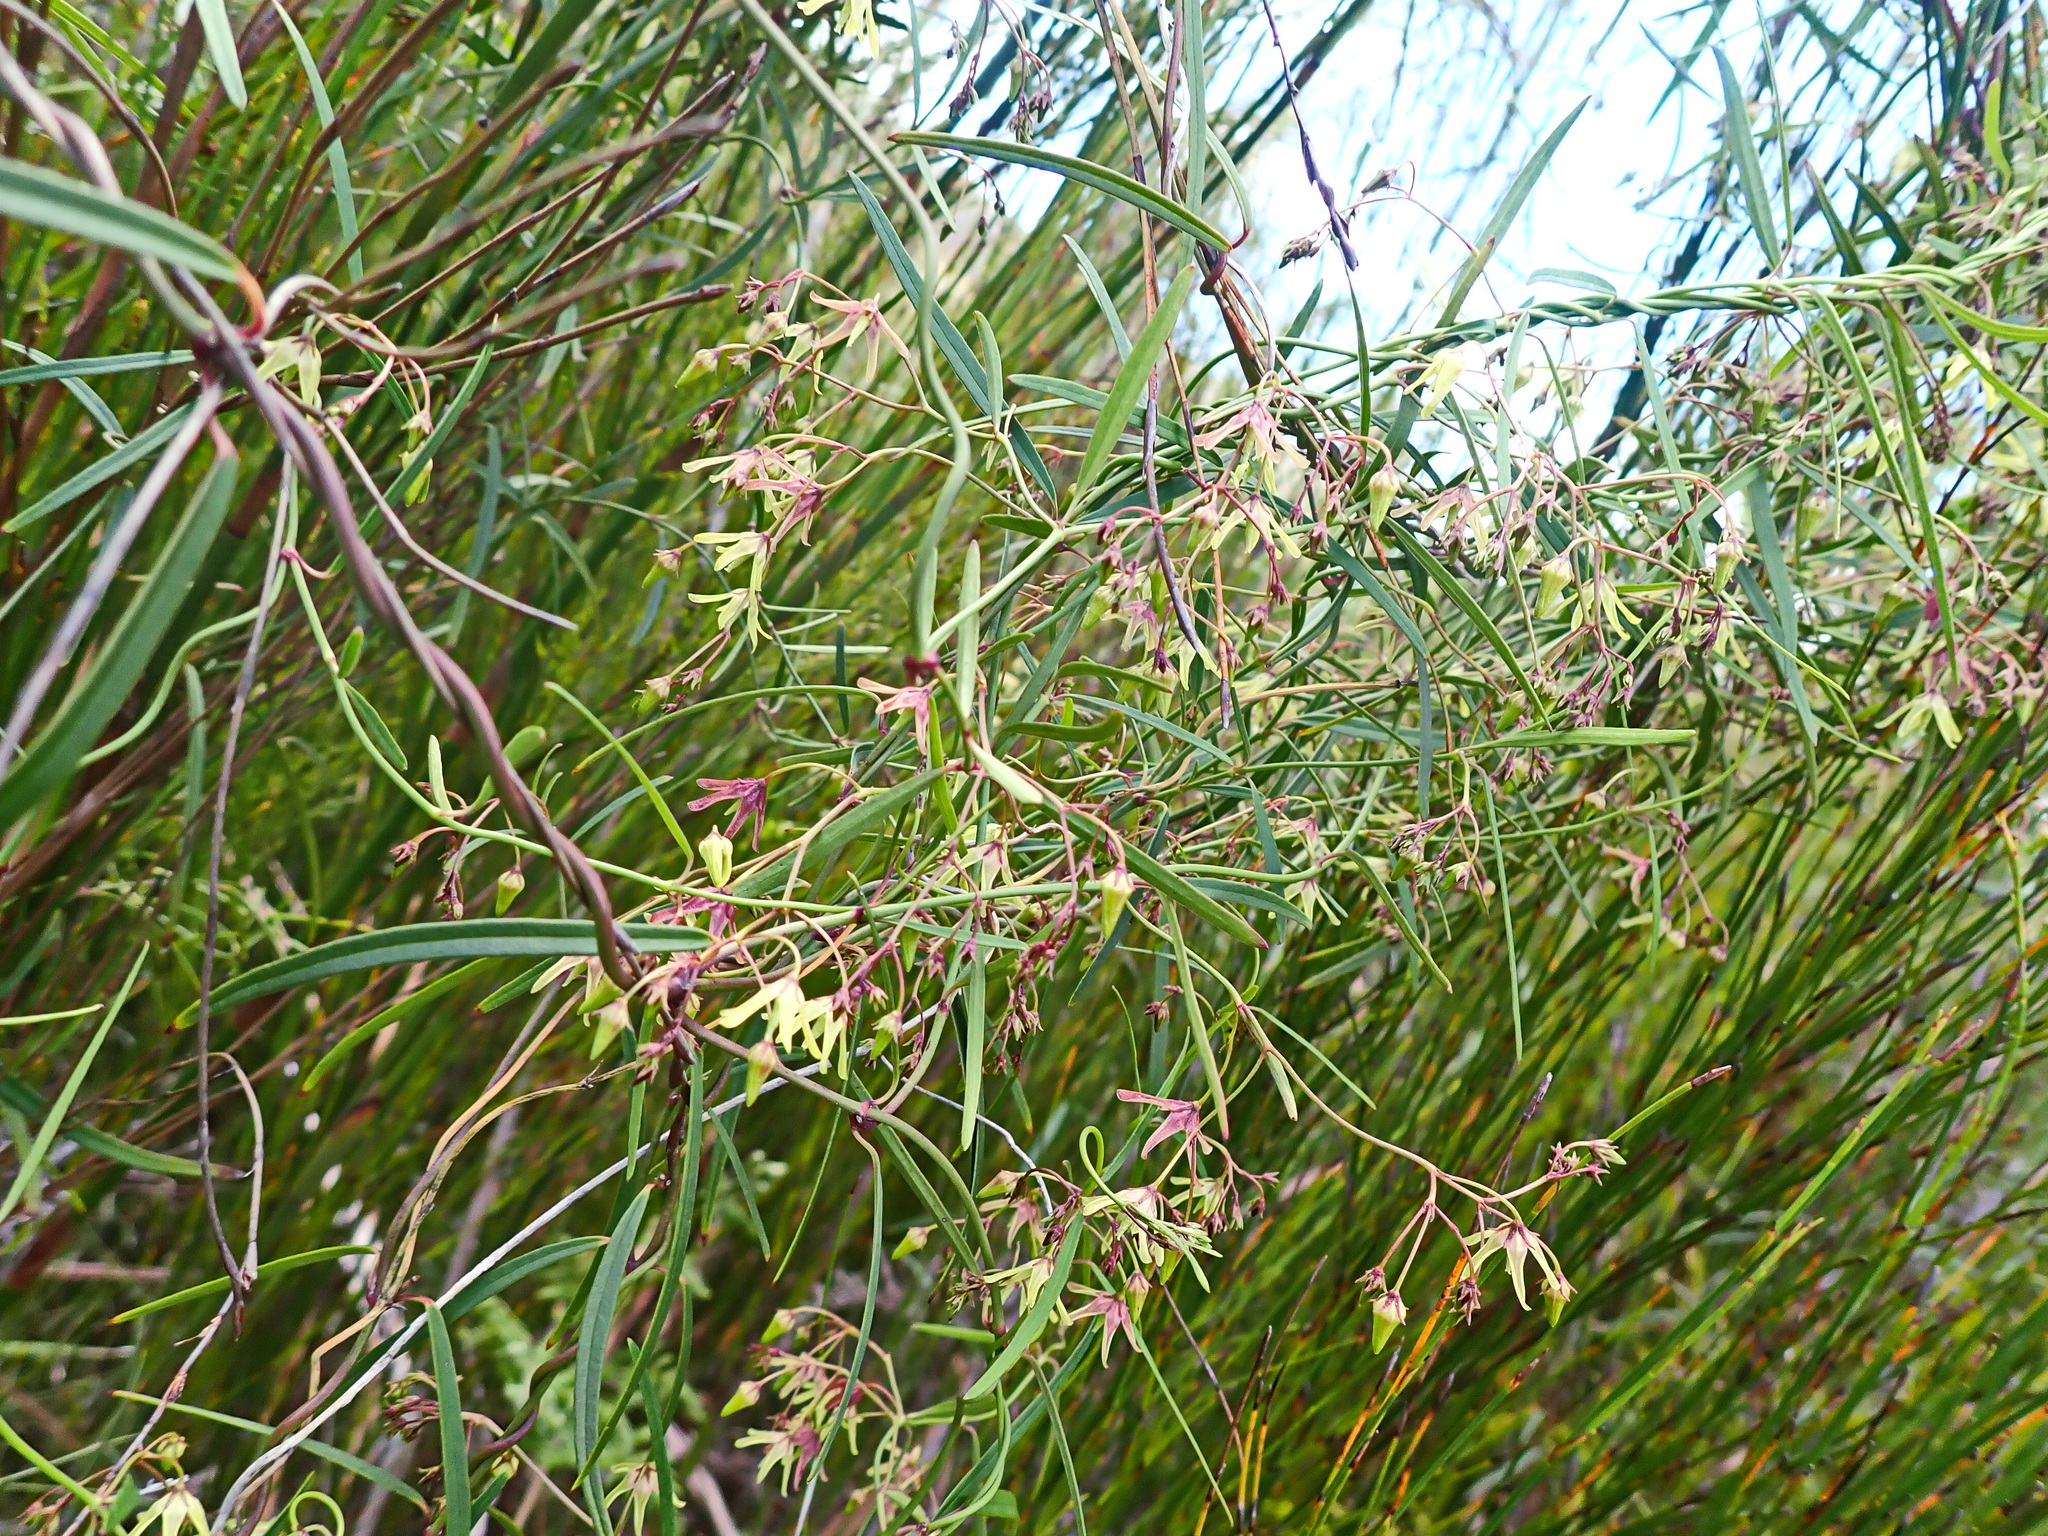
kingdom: Plantae
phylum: Tracheophyta
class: Magnoliopsida
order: Gentianales
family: Apocynaceae
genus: Oncinema
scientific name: Oncinema lineare
